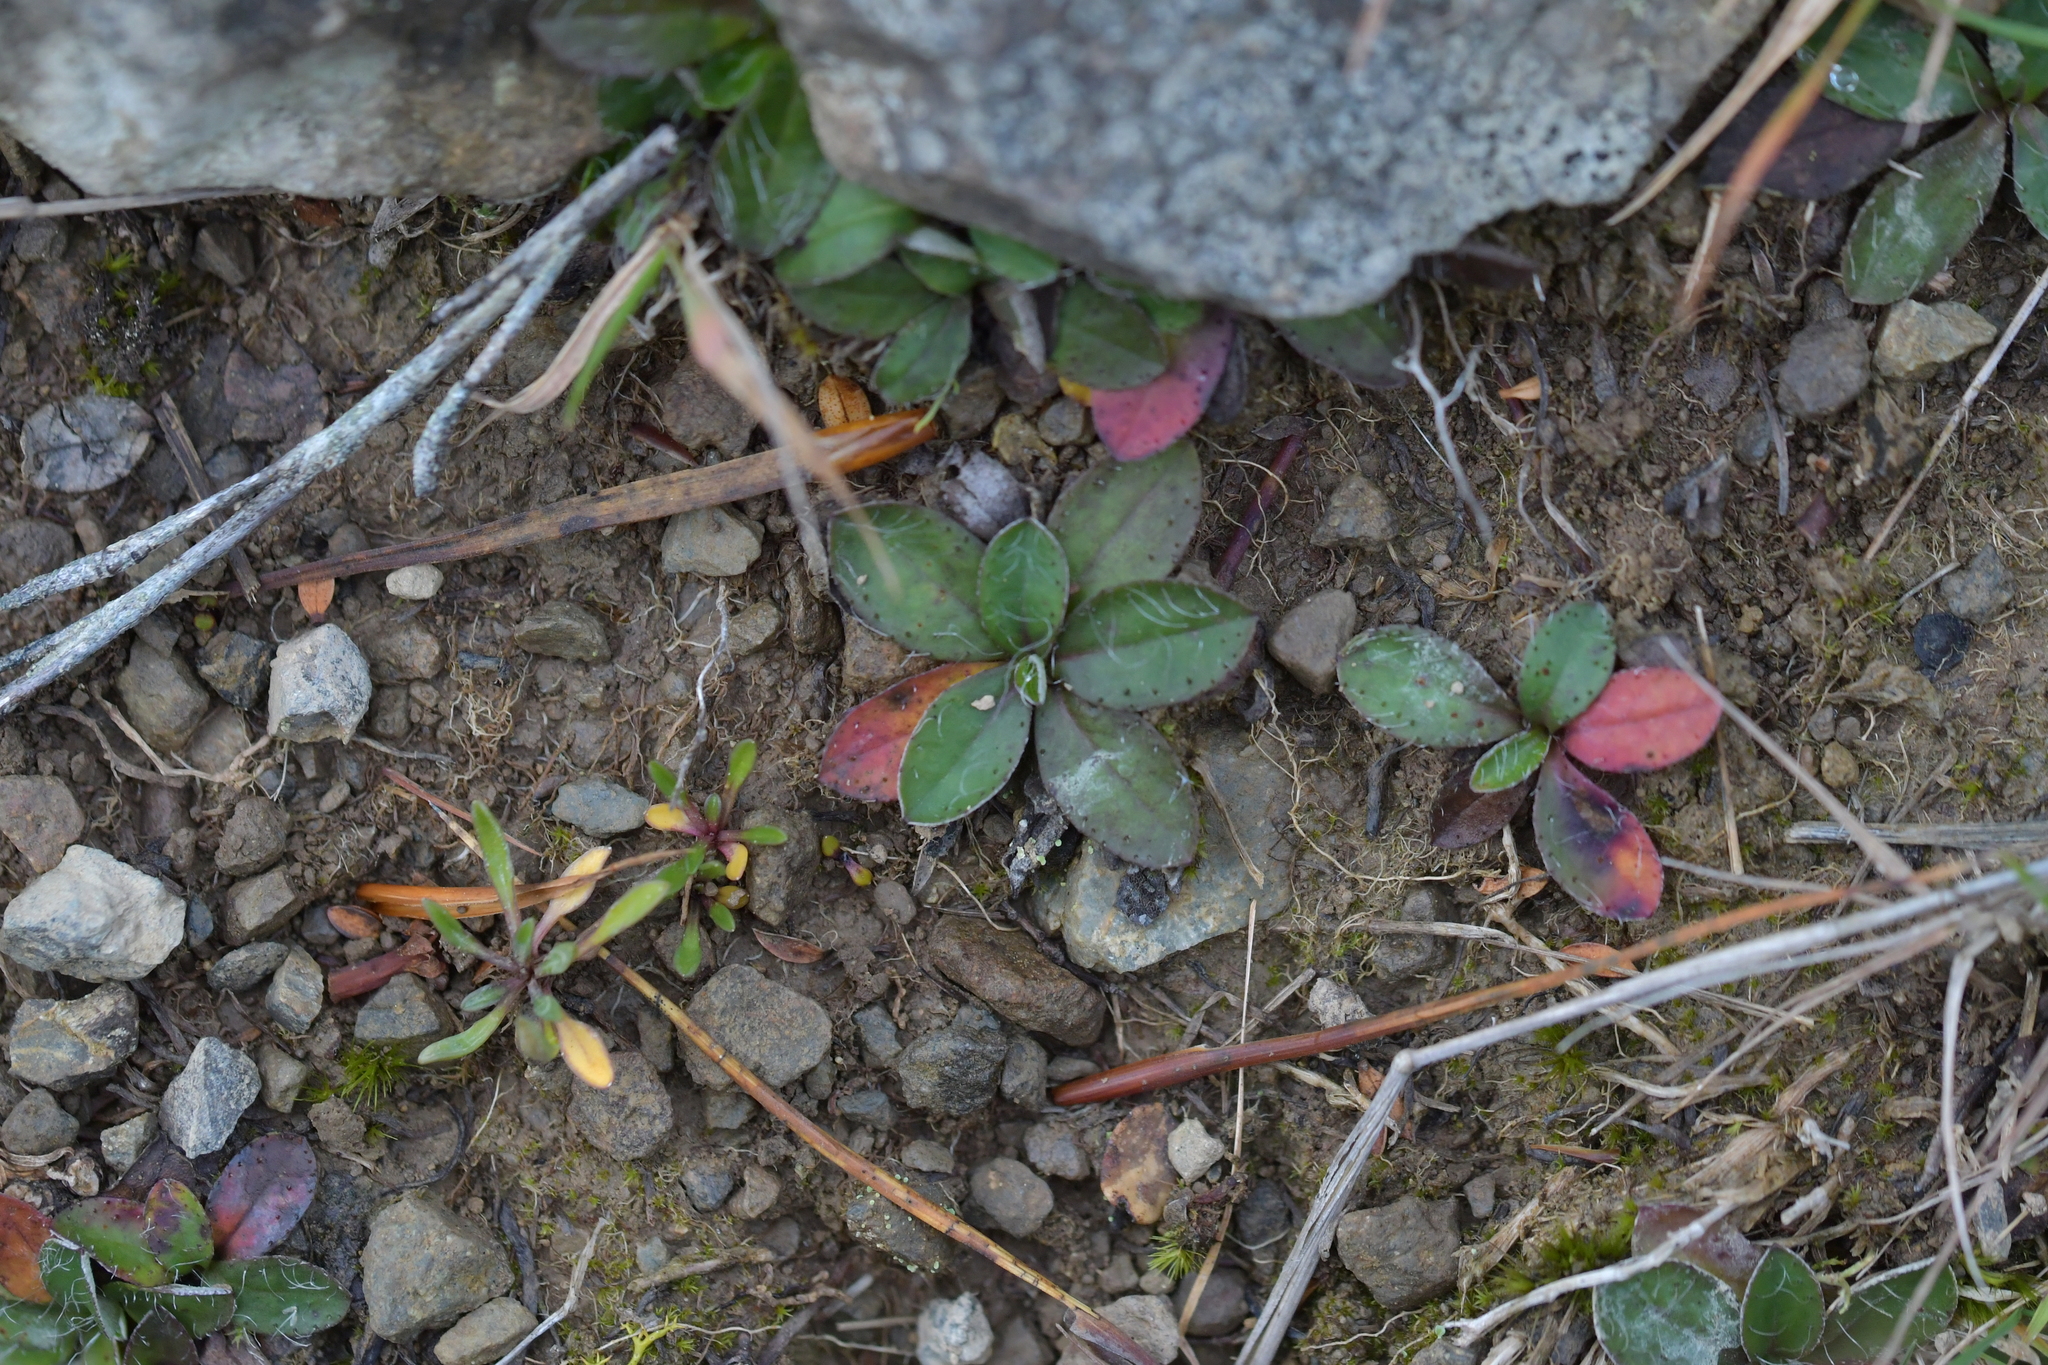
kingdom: Plantae
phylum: Tracheophyta
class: Magnoliopsida
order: Asterales
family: Asteraceae
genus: Pilosella
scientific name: Pilosella officinarum
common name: Mouse-ear hawkweed
